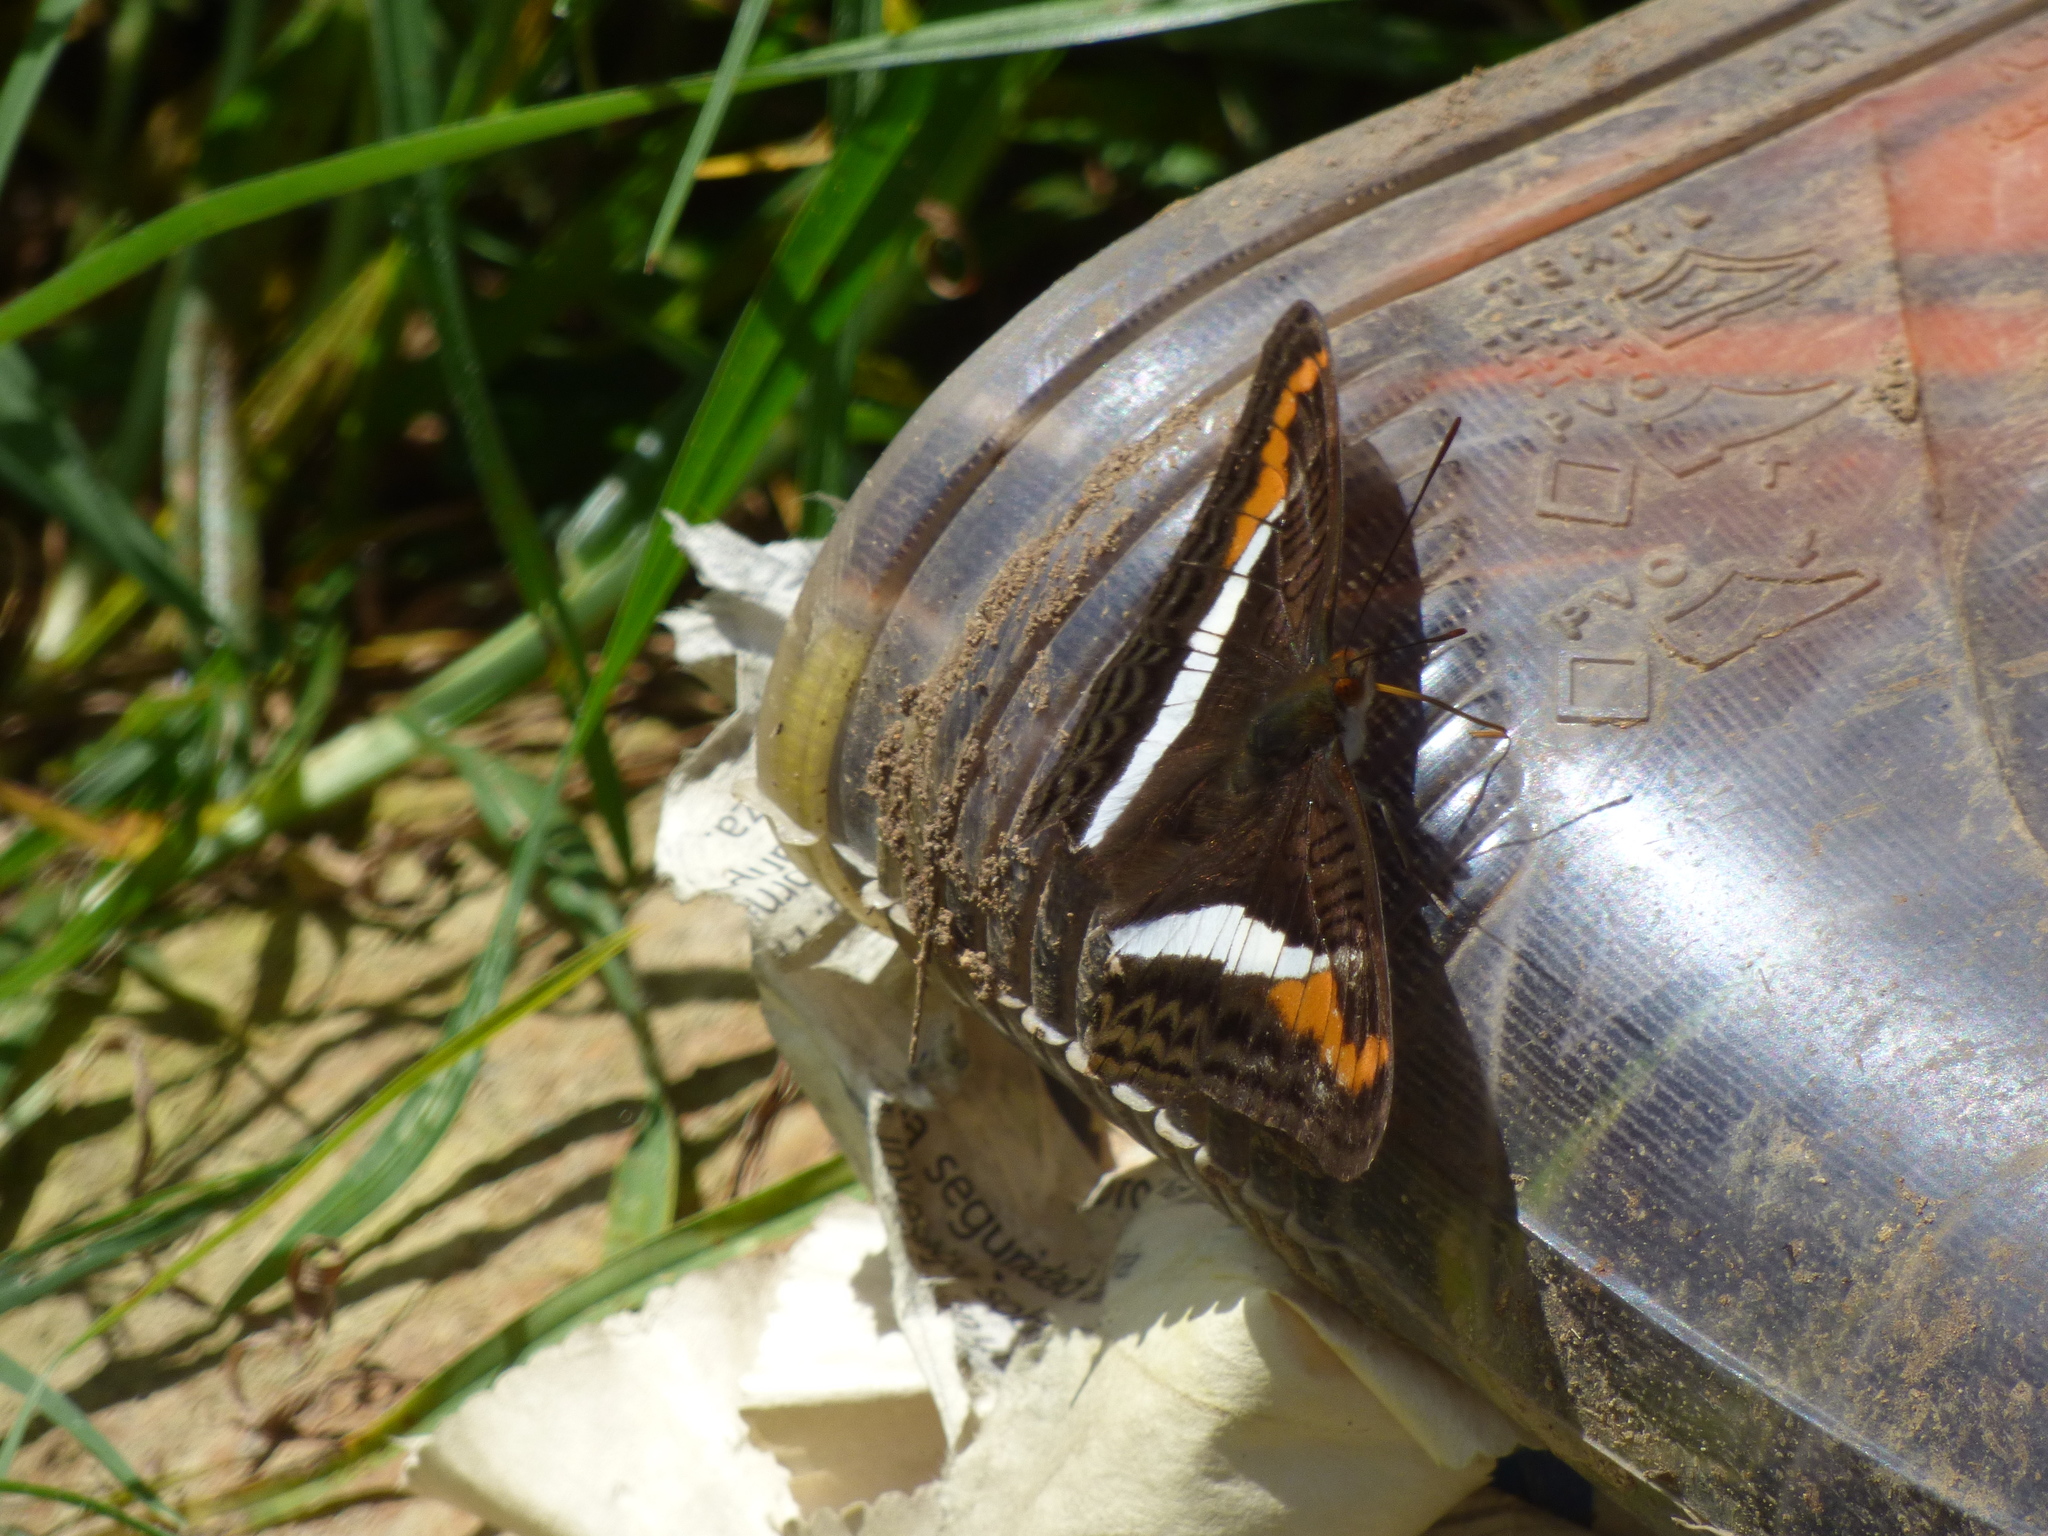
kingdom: Animalia
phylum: Arthropoda
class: Insecta
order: Lepidoptera
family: Nymphalidae
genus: Limenitis
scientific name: Limenitis corcyra
